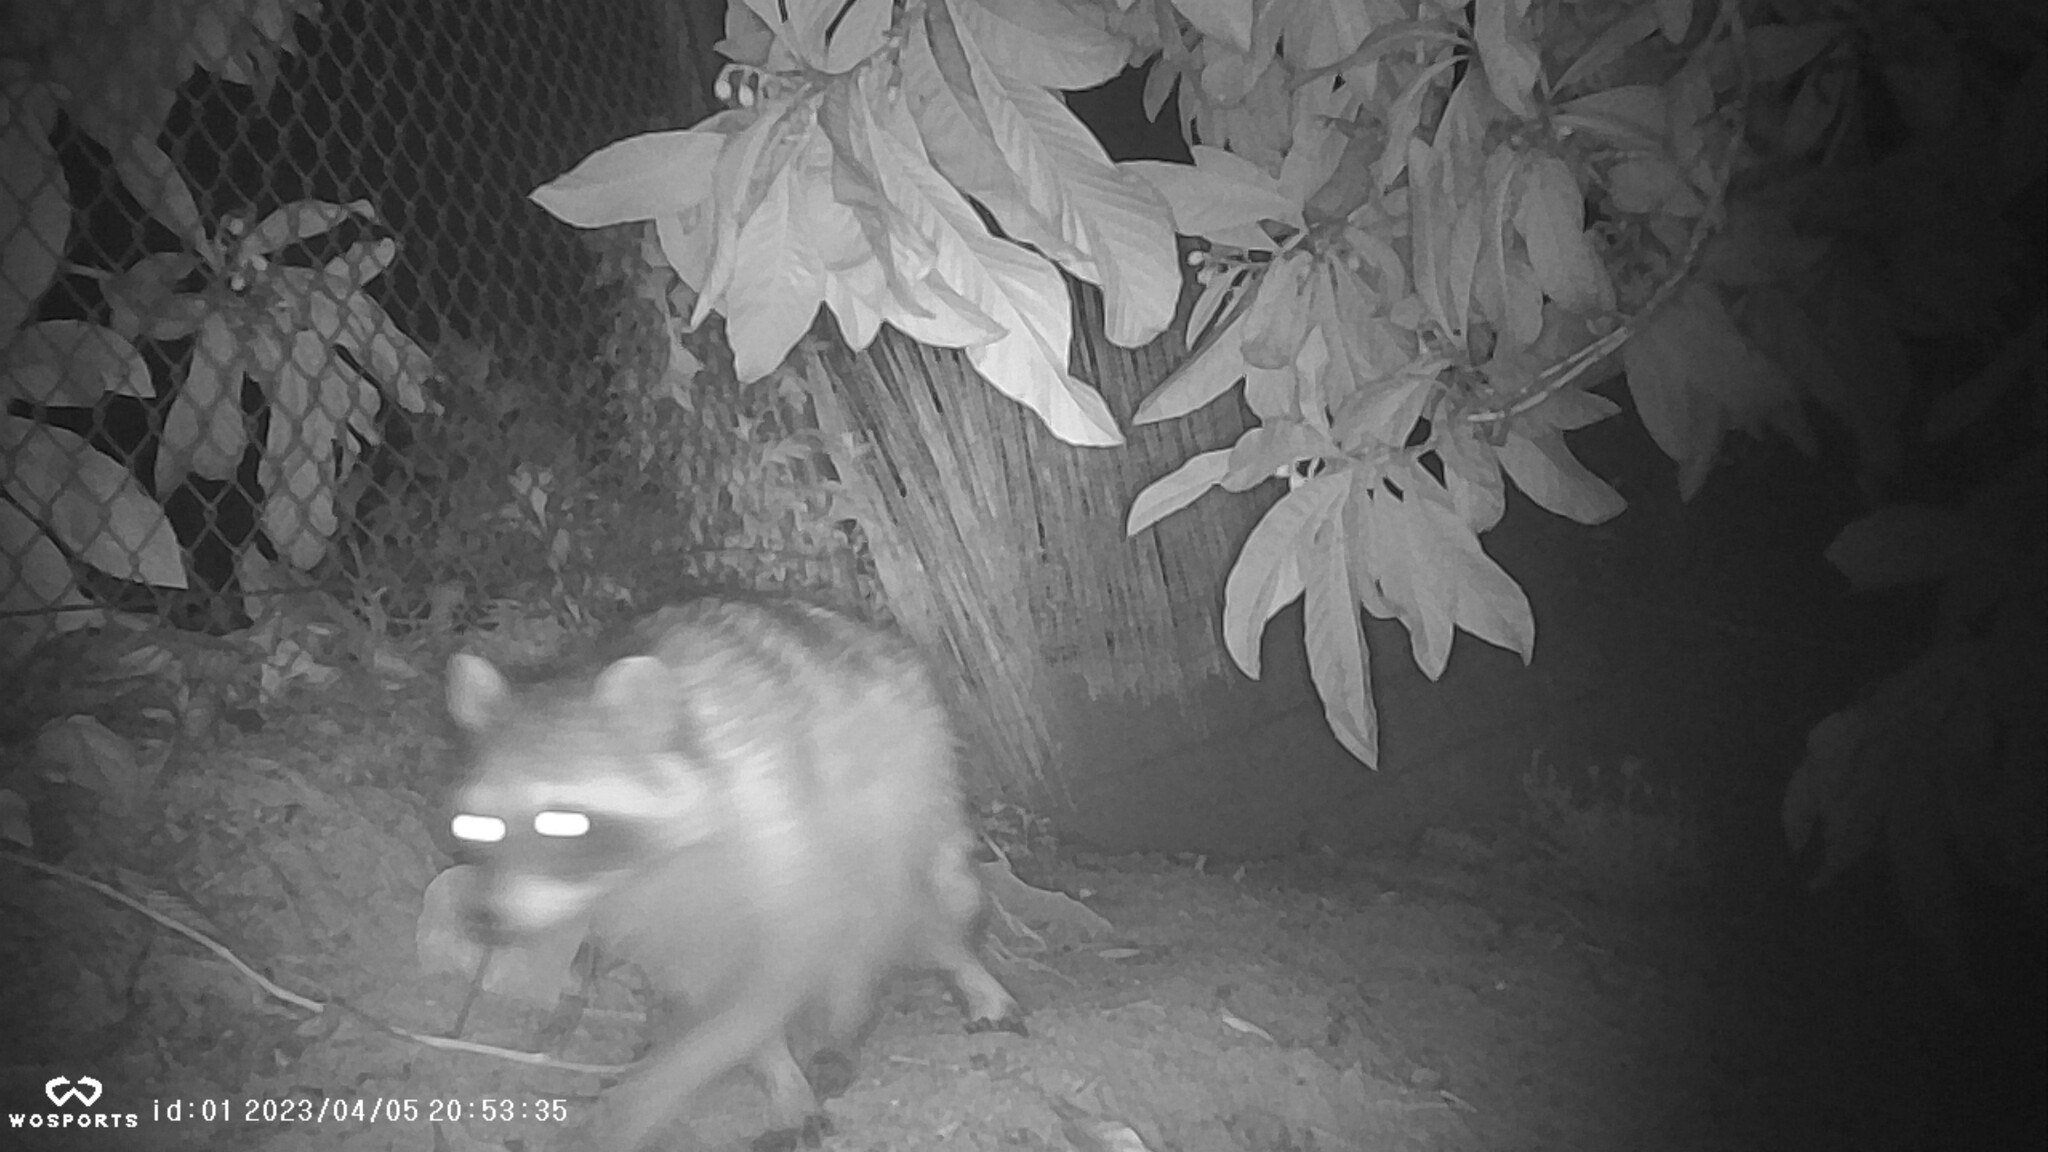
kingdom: Animalia
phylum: Chordata
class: Mammalia
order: Carnivora
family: Procyonidae
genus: Procyon
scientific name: Procyon lotor
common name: Raccoon
